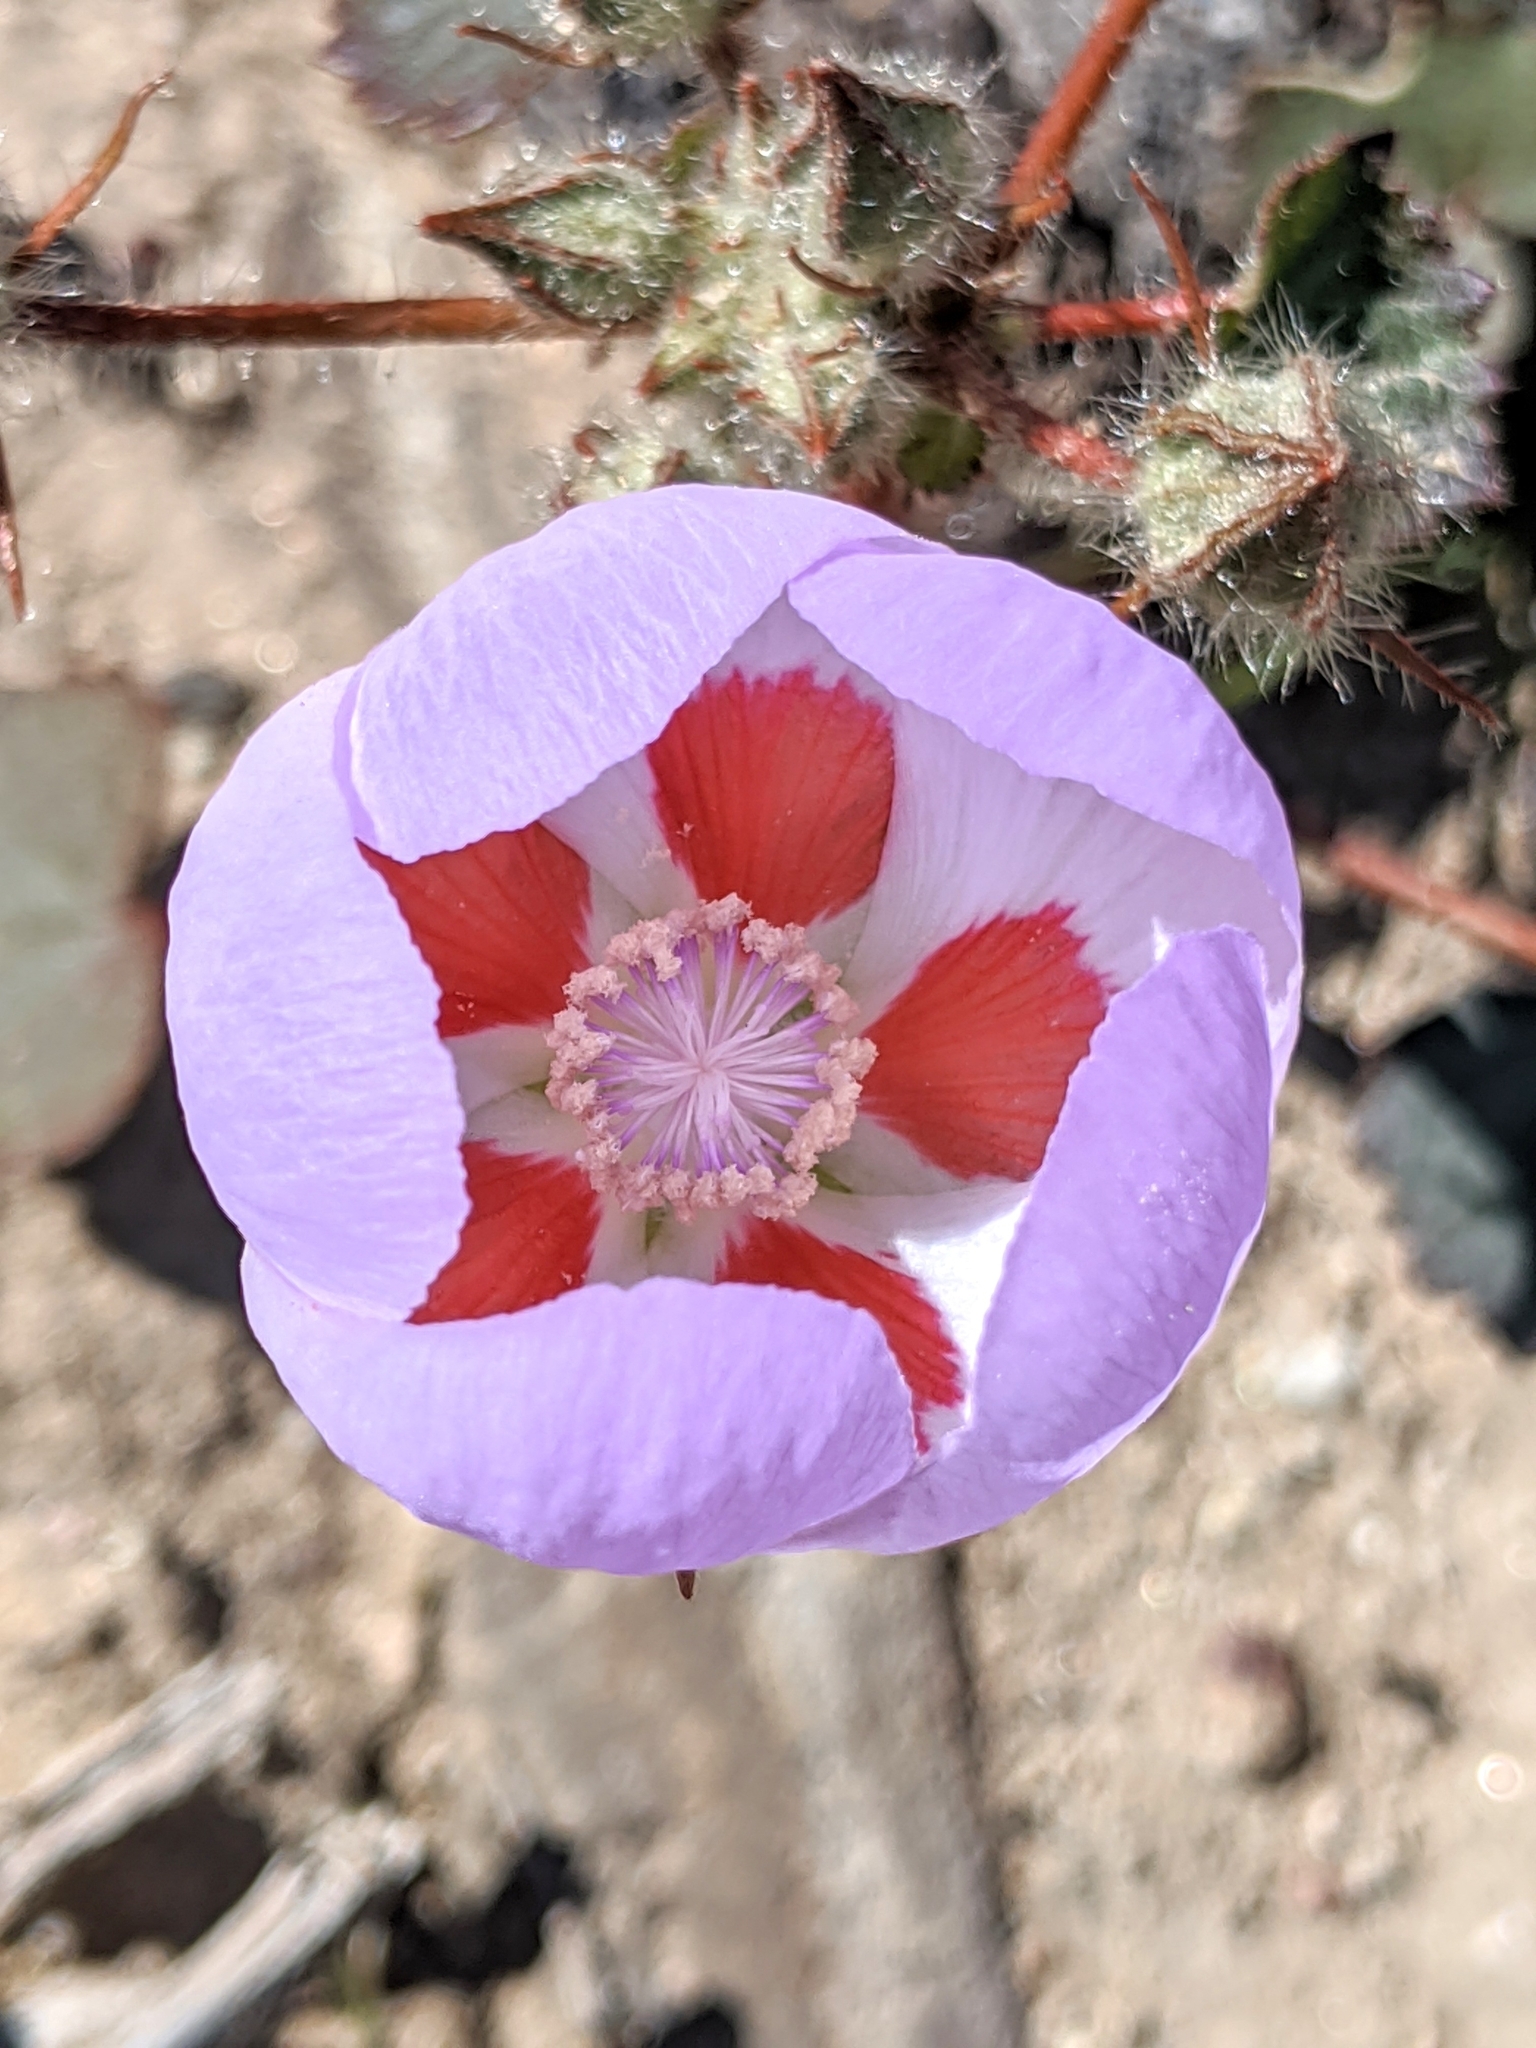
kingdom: Plantae
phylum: Tracheophyta
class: Magnoliopsida
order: Malvales
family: Malvaceae
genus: Eremalche
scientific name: Eremalche rotundifolia
